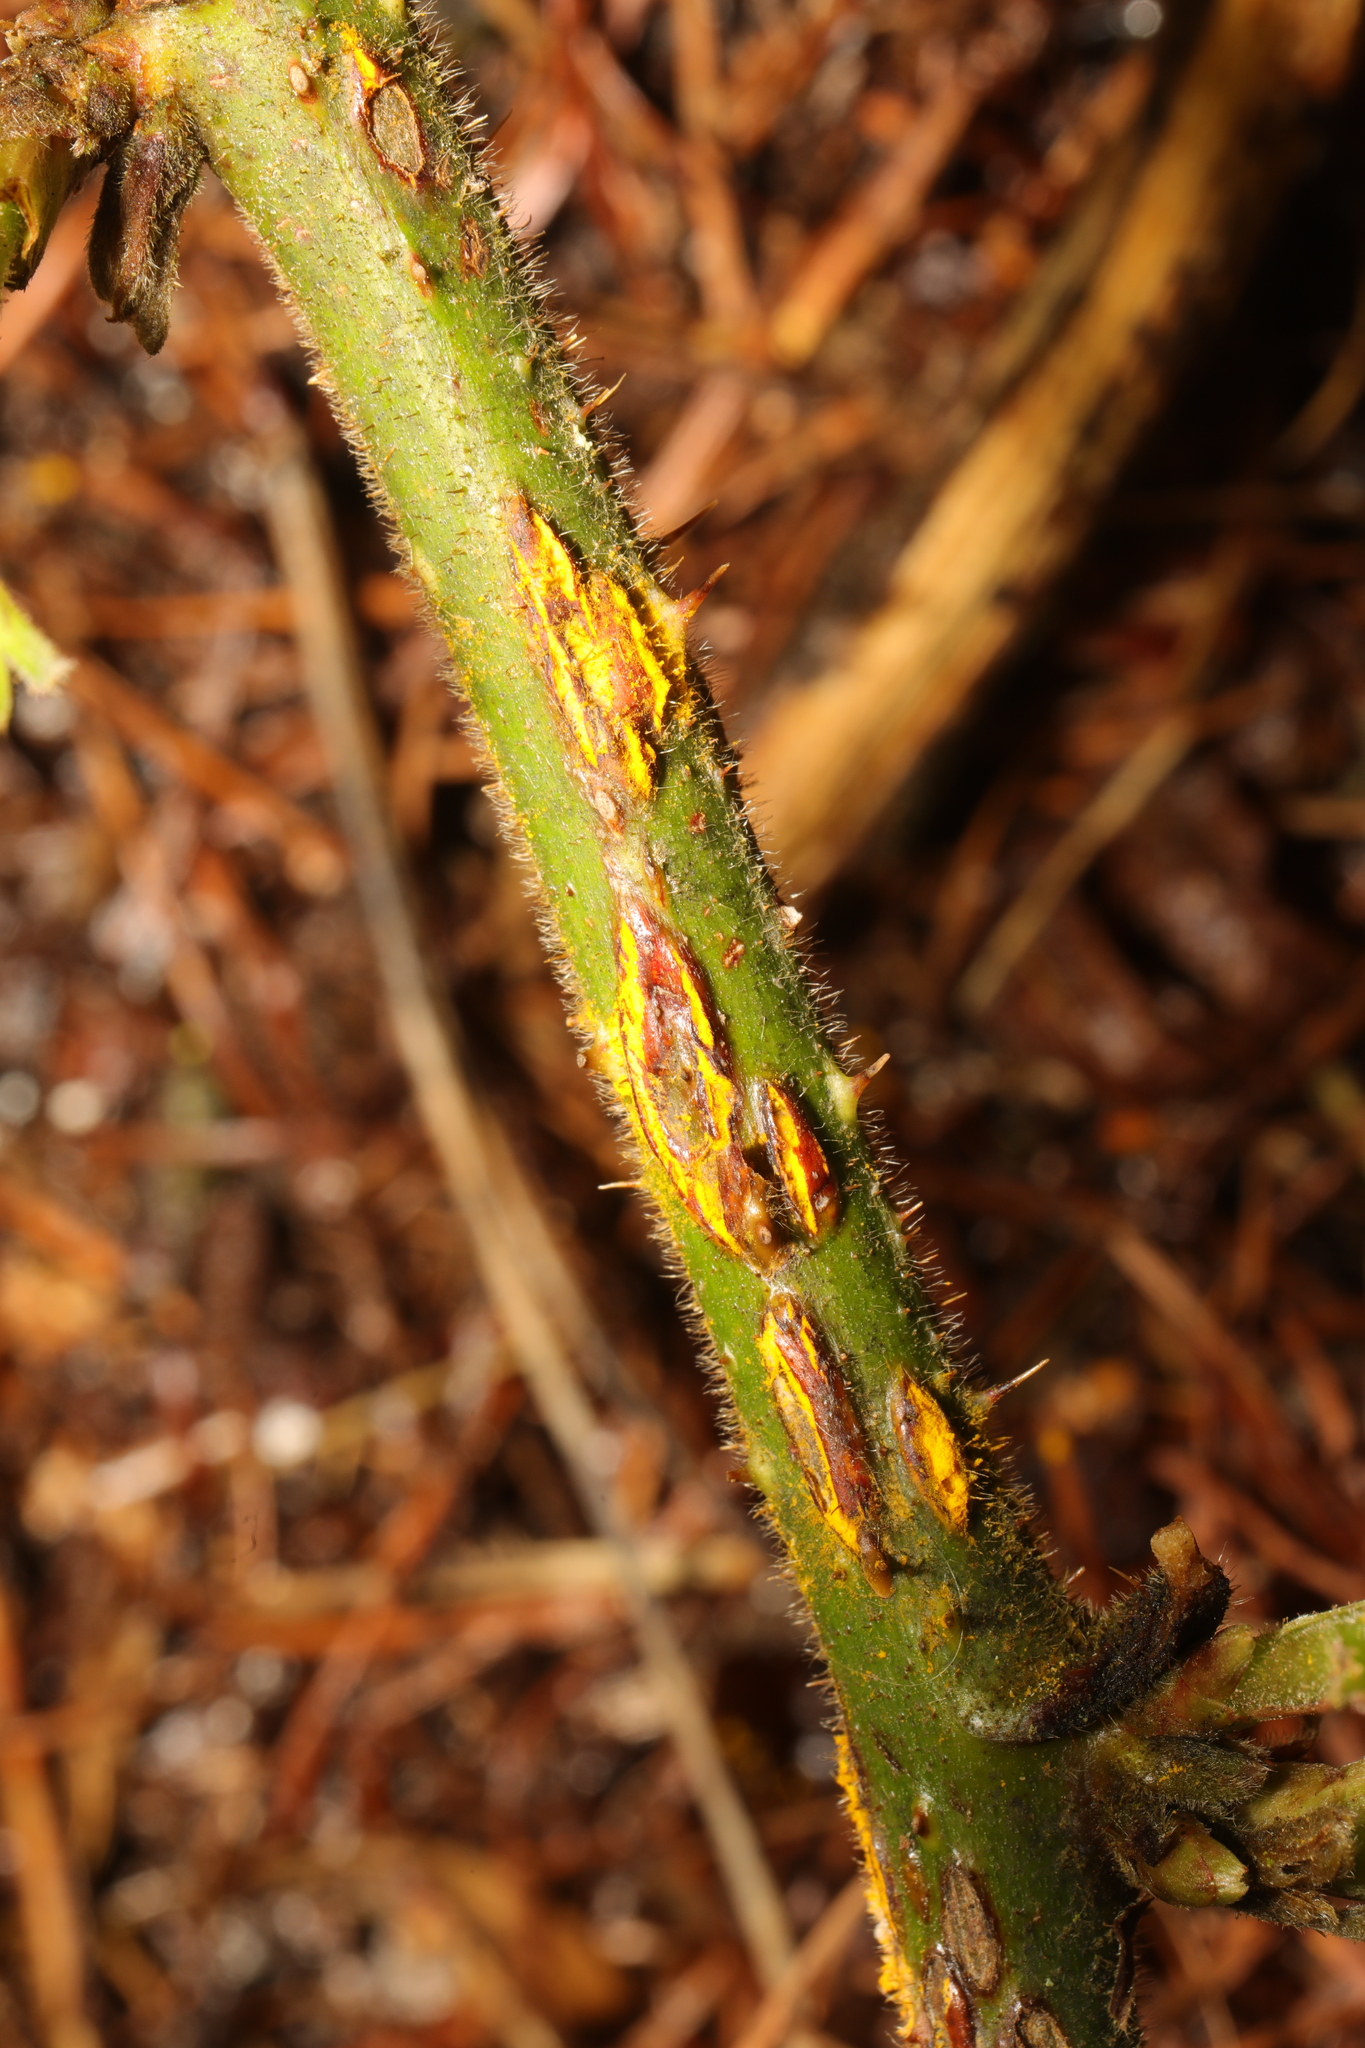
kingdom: Fungi
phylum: Basidiomycota
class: Pucciniomycetes
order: Pucciniales
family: Phragmidiaceae
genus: Kuehneola
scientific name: Kuehneola uredinis
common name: Bramble stem rust
